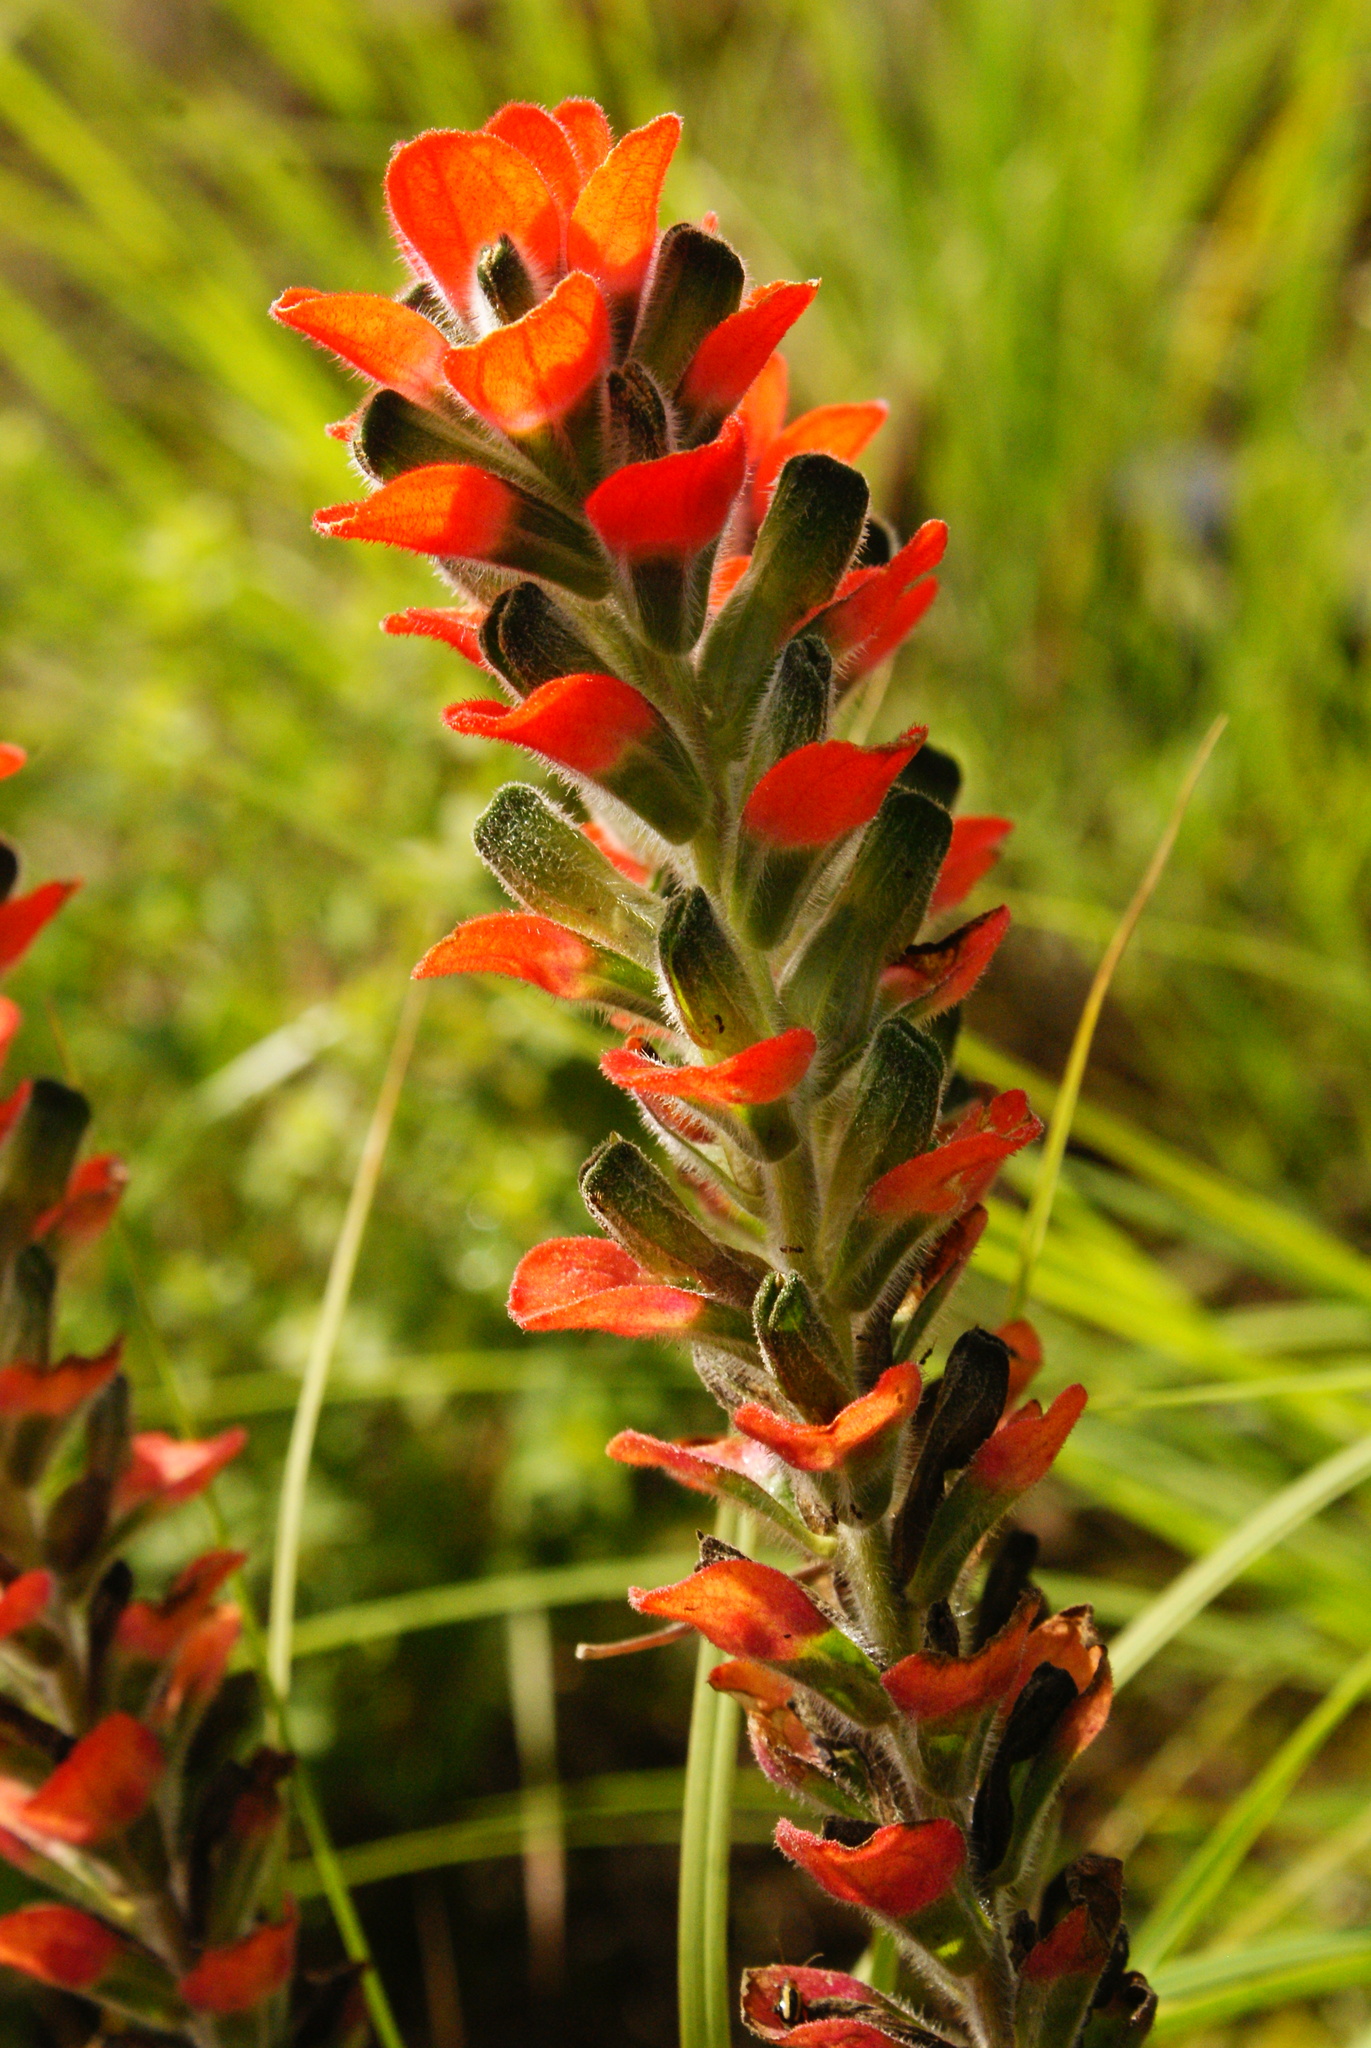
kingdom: Plantae
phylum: Tracheophyta
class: Magnoliopsida
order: Lamiales
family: Orobanchaceae
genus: Castilleja
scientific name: Castilleja nervata
